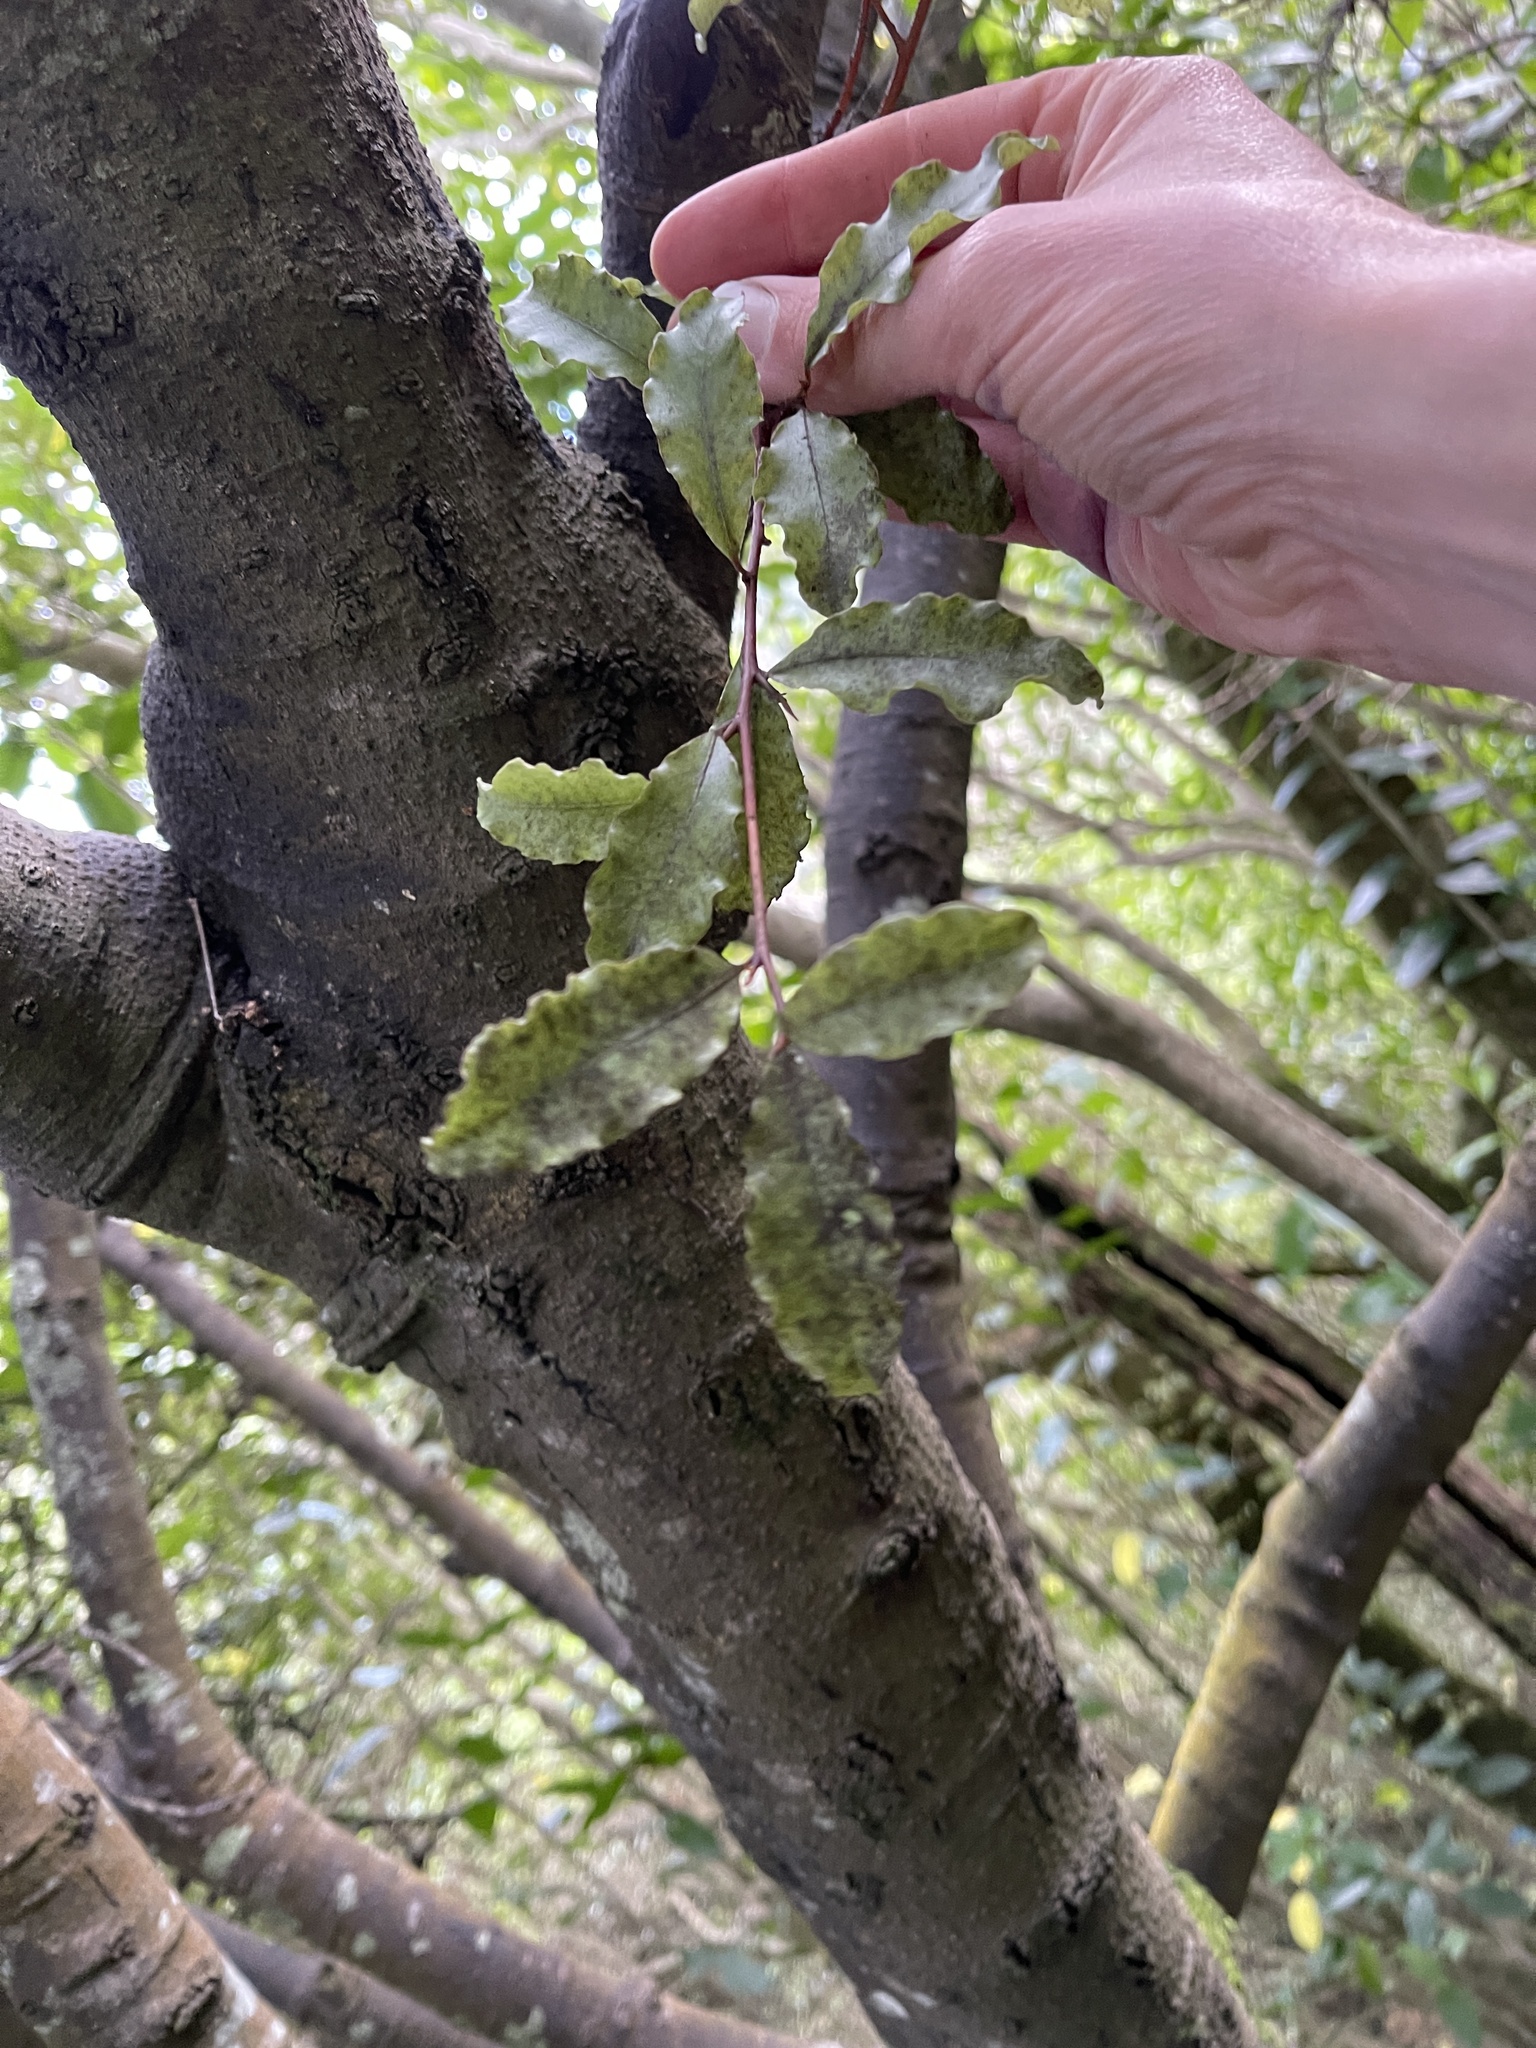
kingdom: Plantae
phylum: Tracheophyta
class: Magnoliopsida
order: Ericales
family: Primulaceae
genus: Myrsine
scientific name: Myrsine australis
